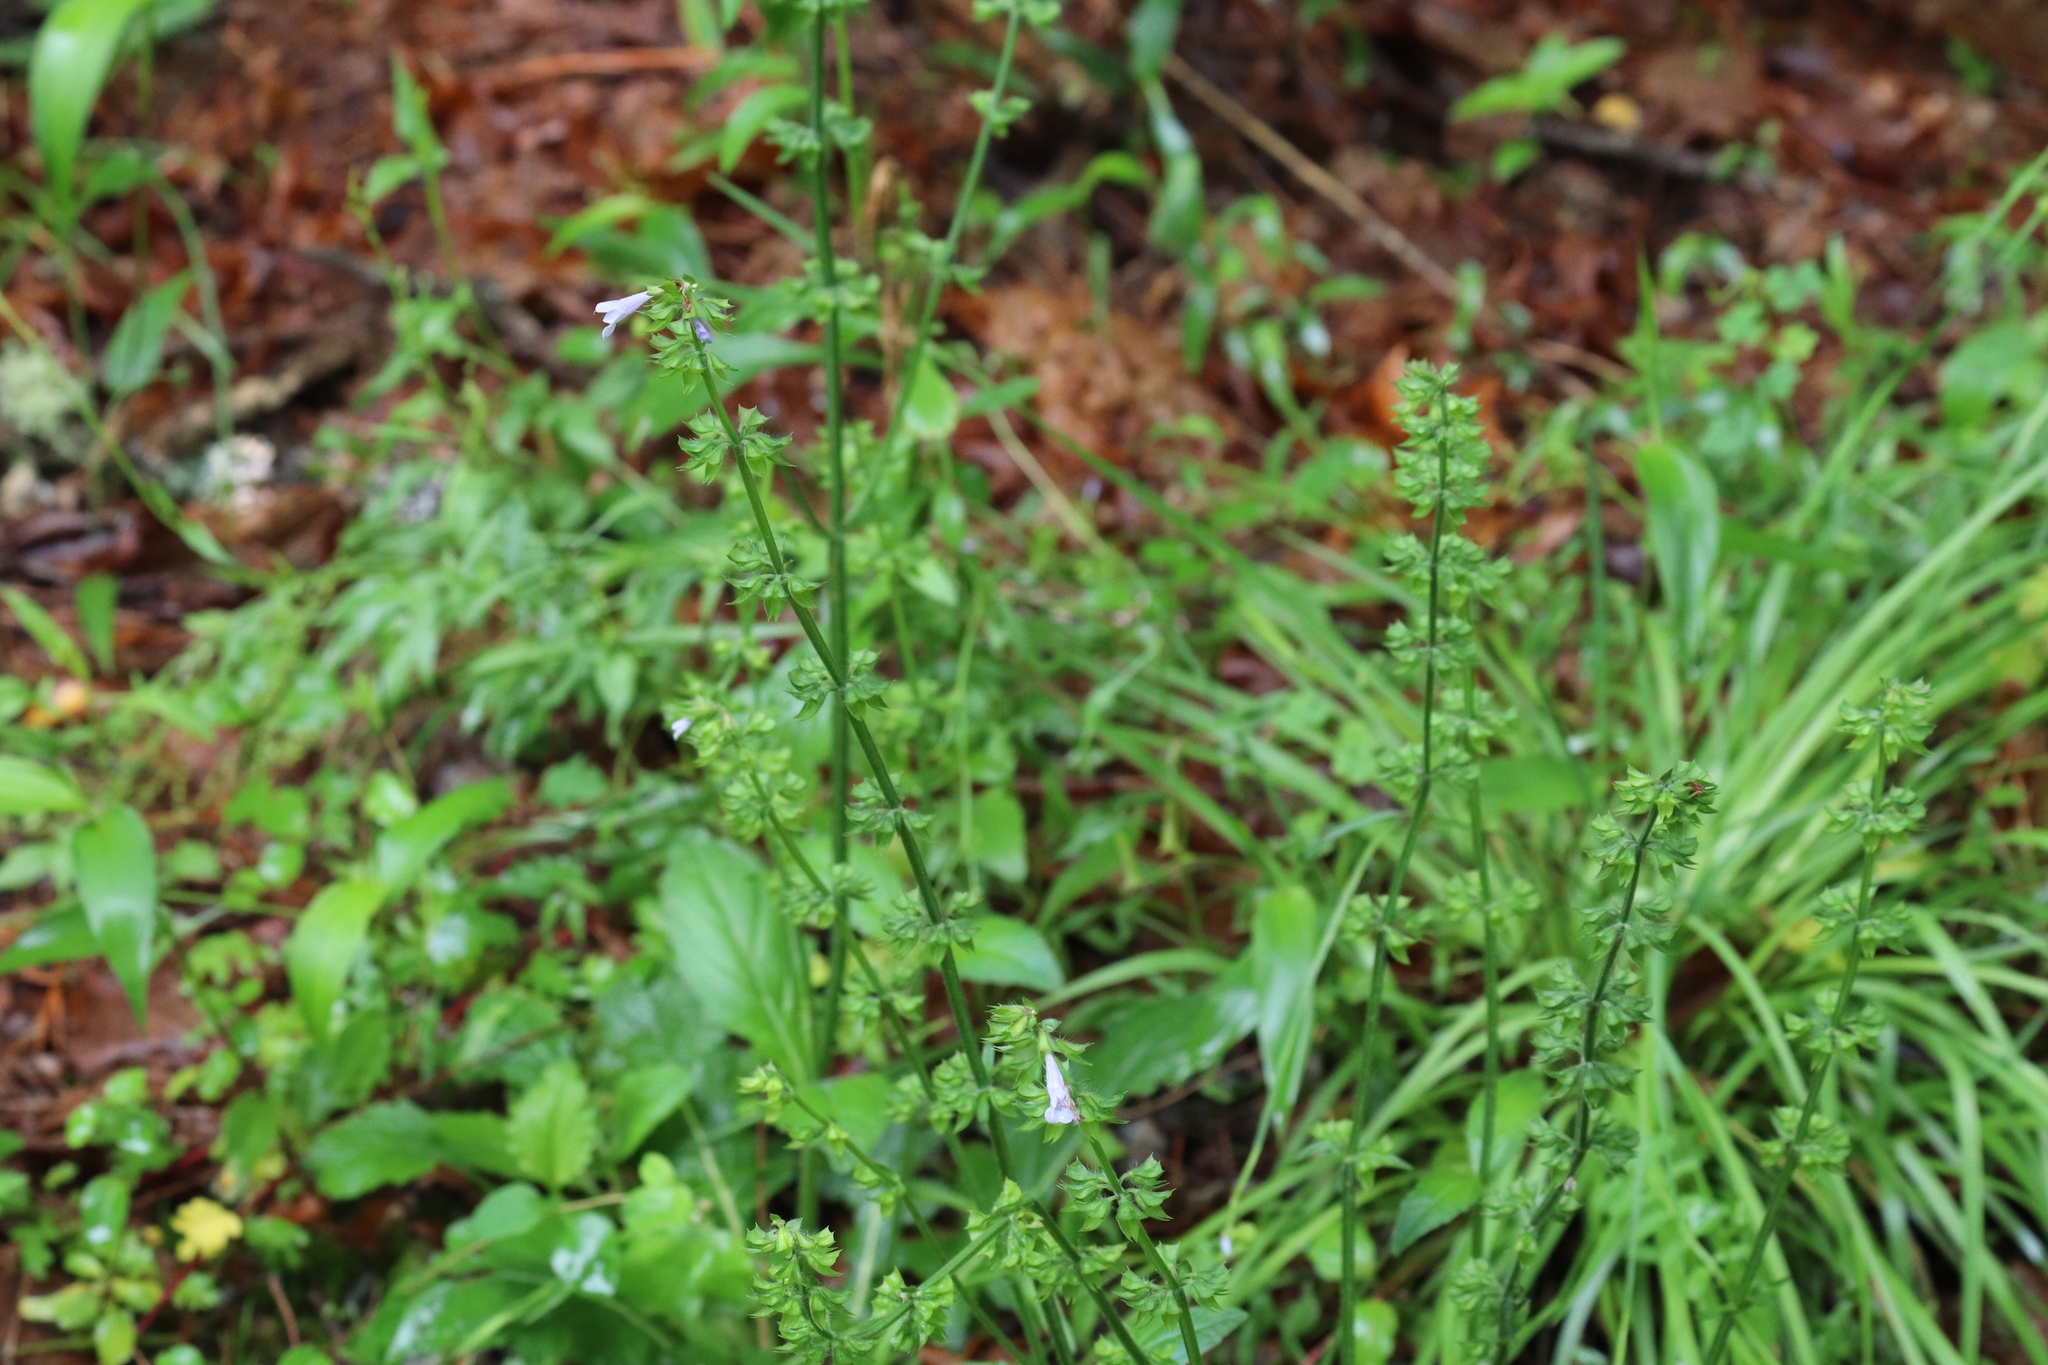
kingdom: Plantae
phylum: Tracheophyta
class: Magnoliopsida
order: Lamiales
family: Lamiaceae
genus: Salvia
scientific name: Salvia lyrata
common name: Cancerweed
